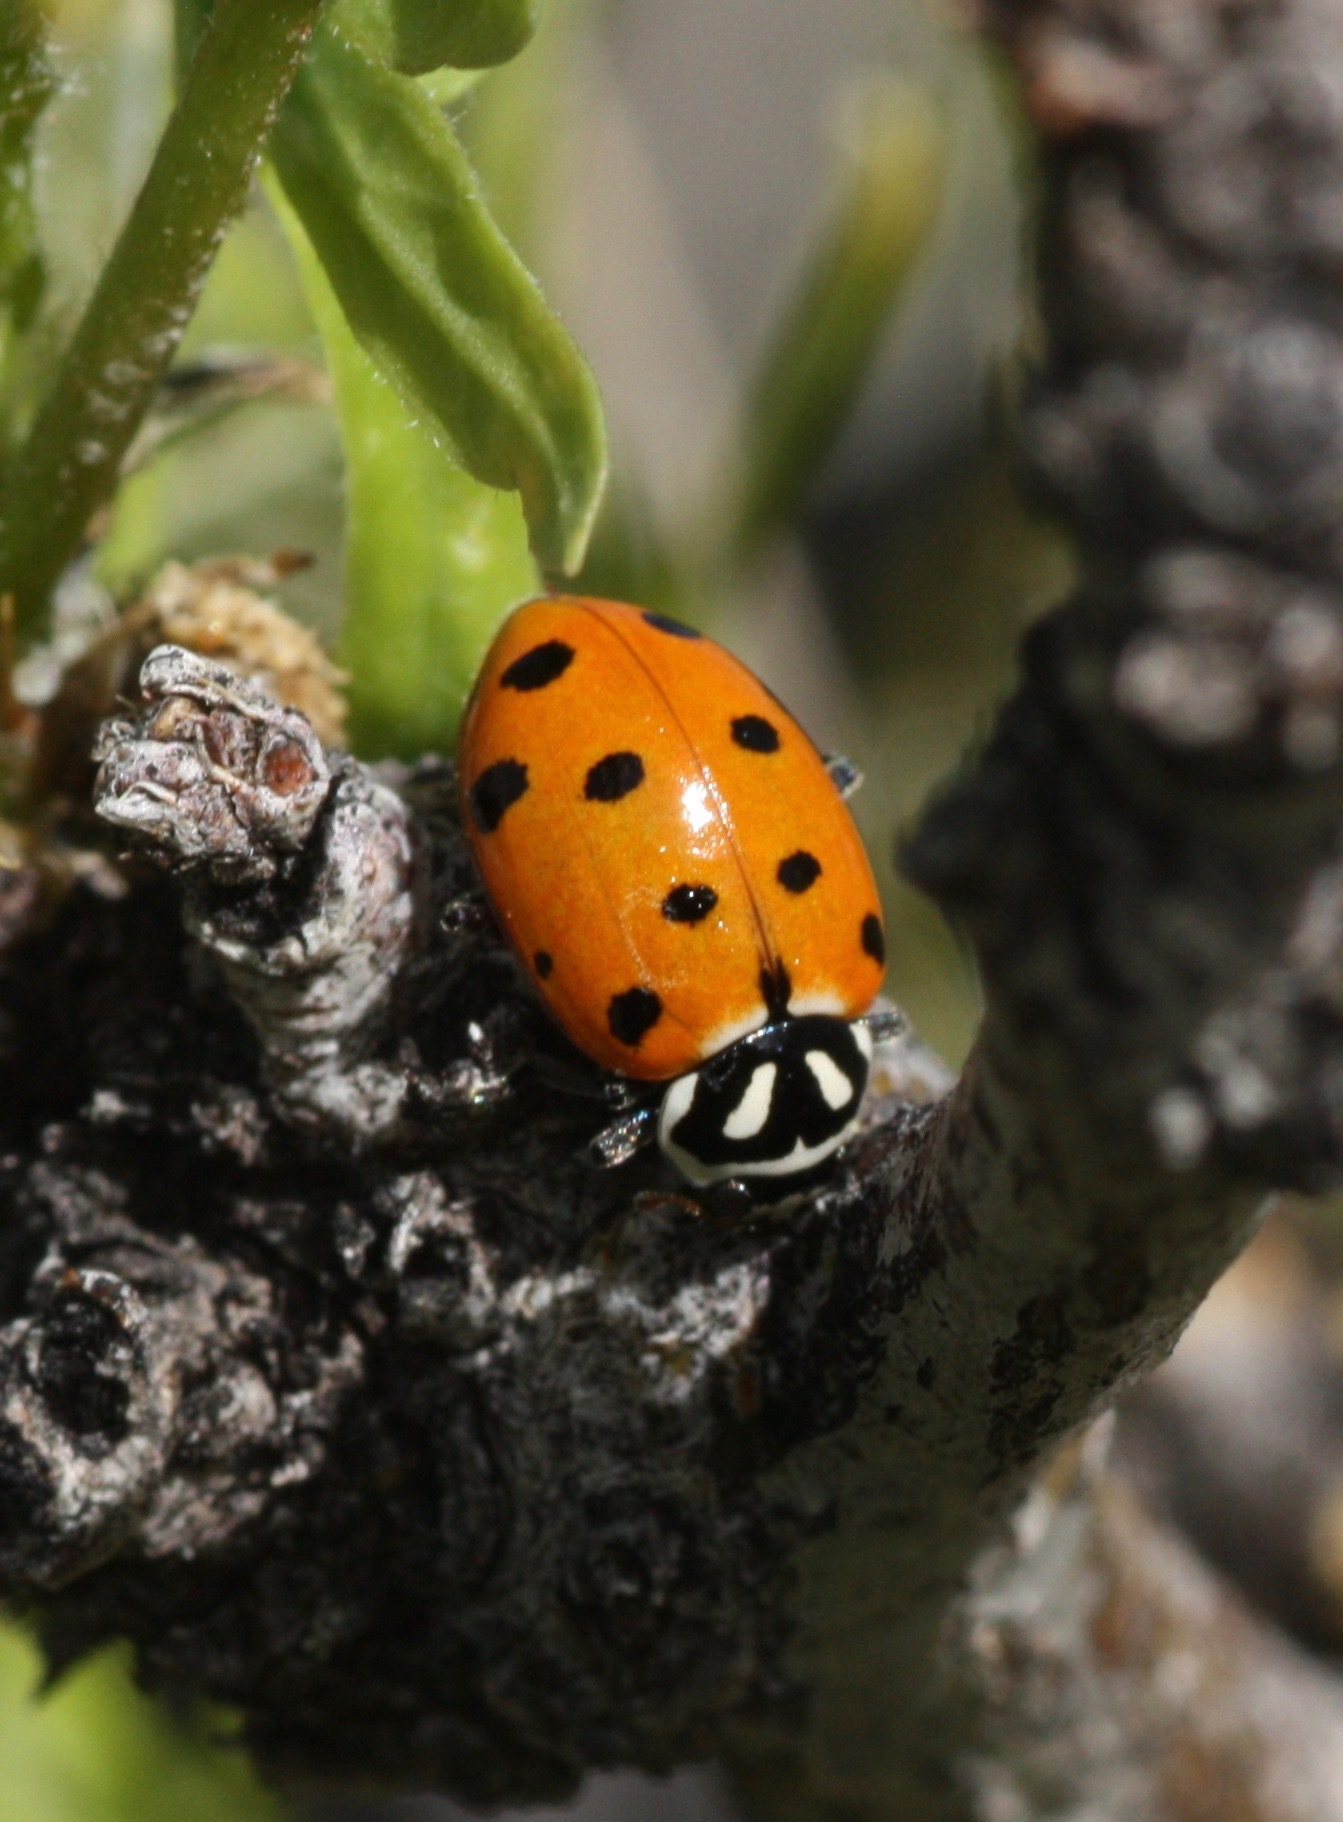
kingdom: Animalia
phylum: Arthropoda
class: Insecta
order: Coleoptera
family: Coccinellidae
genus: Hippodamia
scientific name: Hippodamia convergens
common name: Convergent lady beetle
